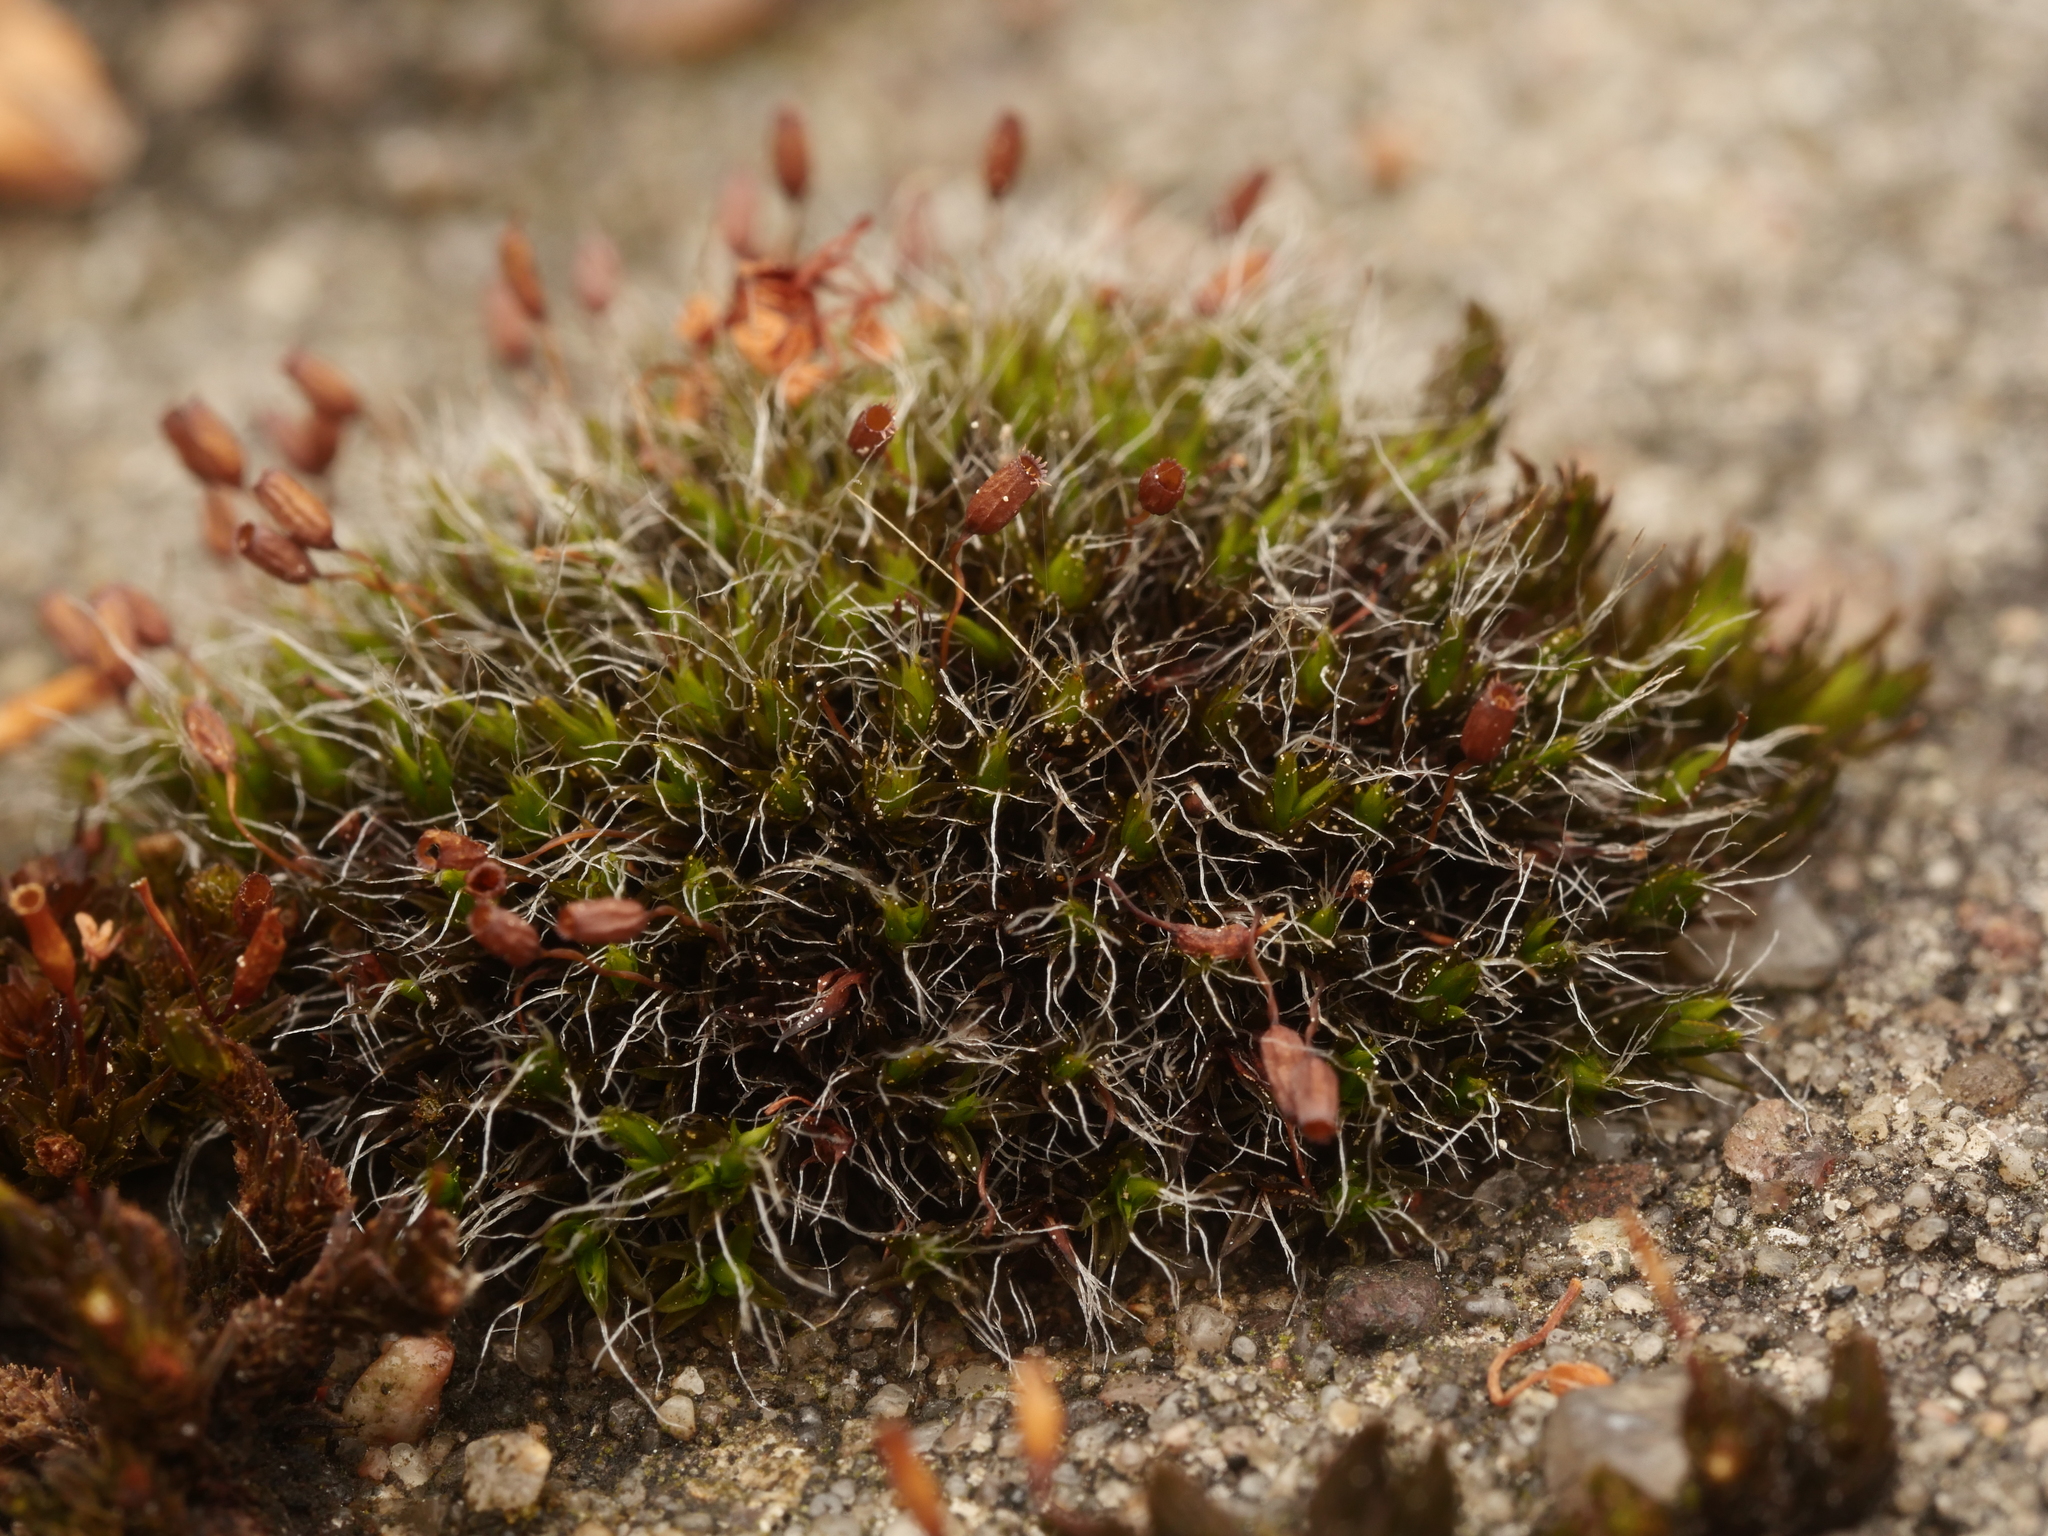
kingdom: Plantae
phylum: Bryophyta
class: Bryopsida
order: Grimmiales
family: Grimmiaceae
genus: Grimmia
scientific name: Grimmia pulvinata
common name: Grey-cushioned grimmia
